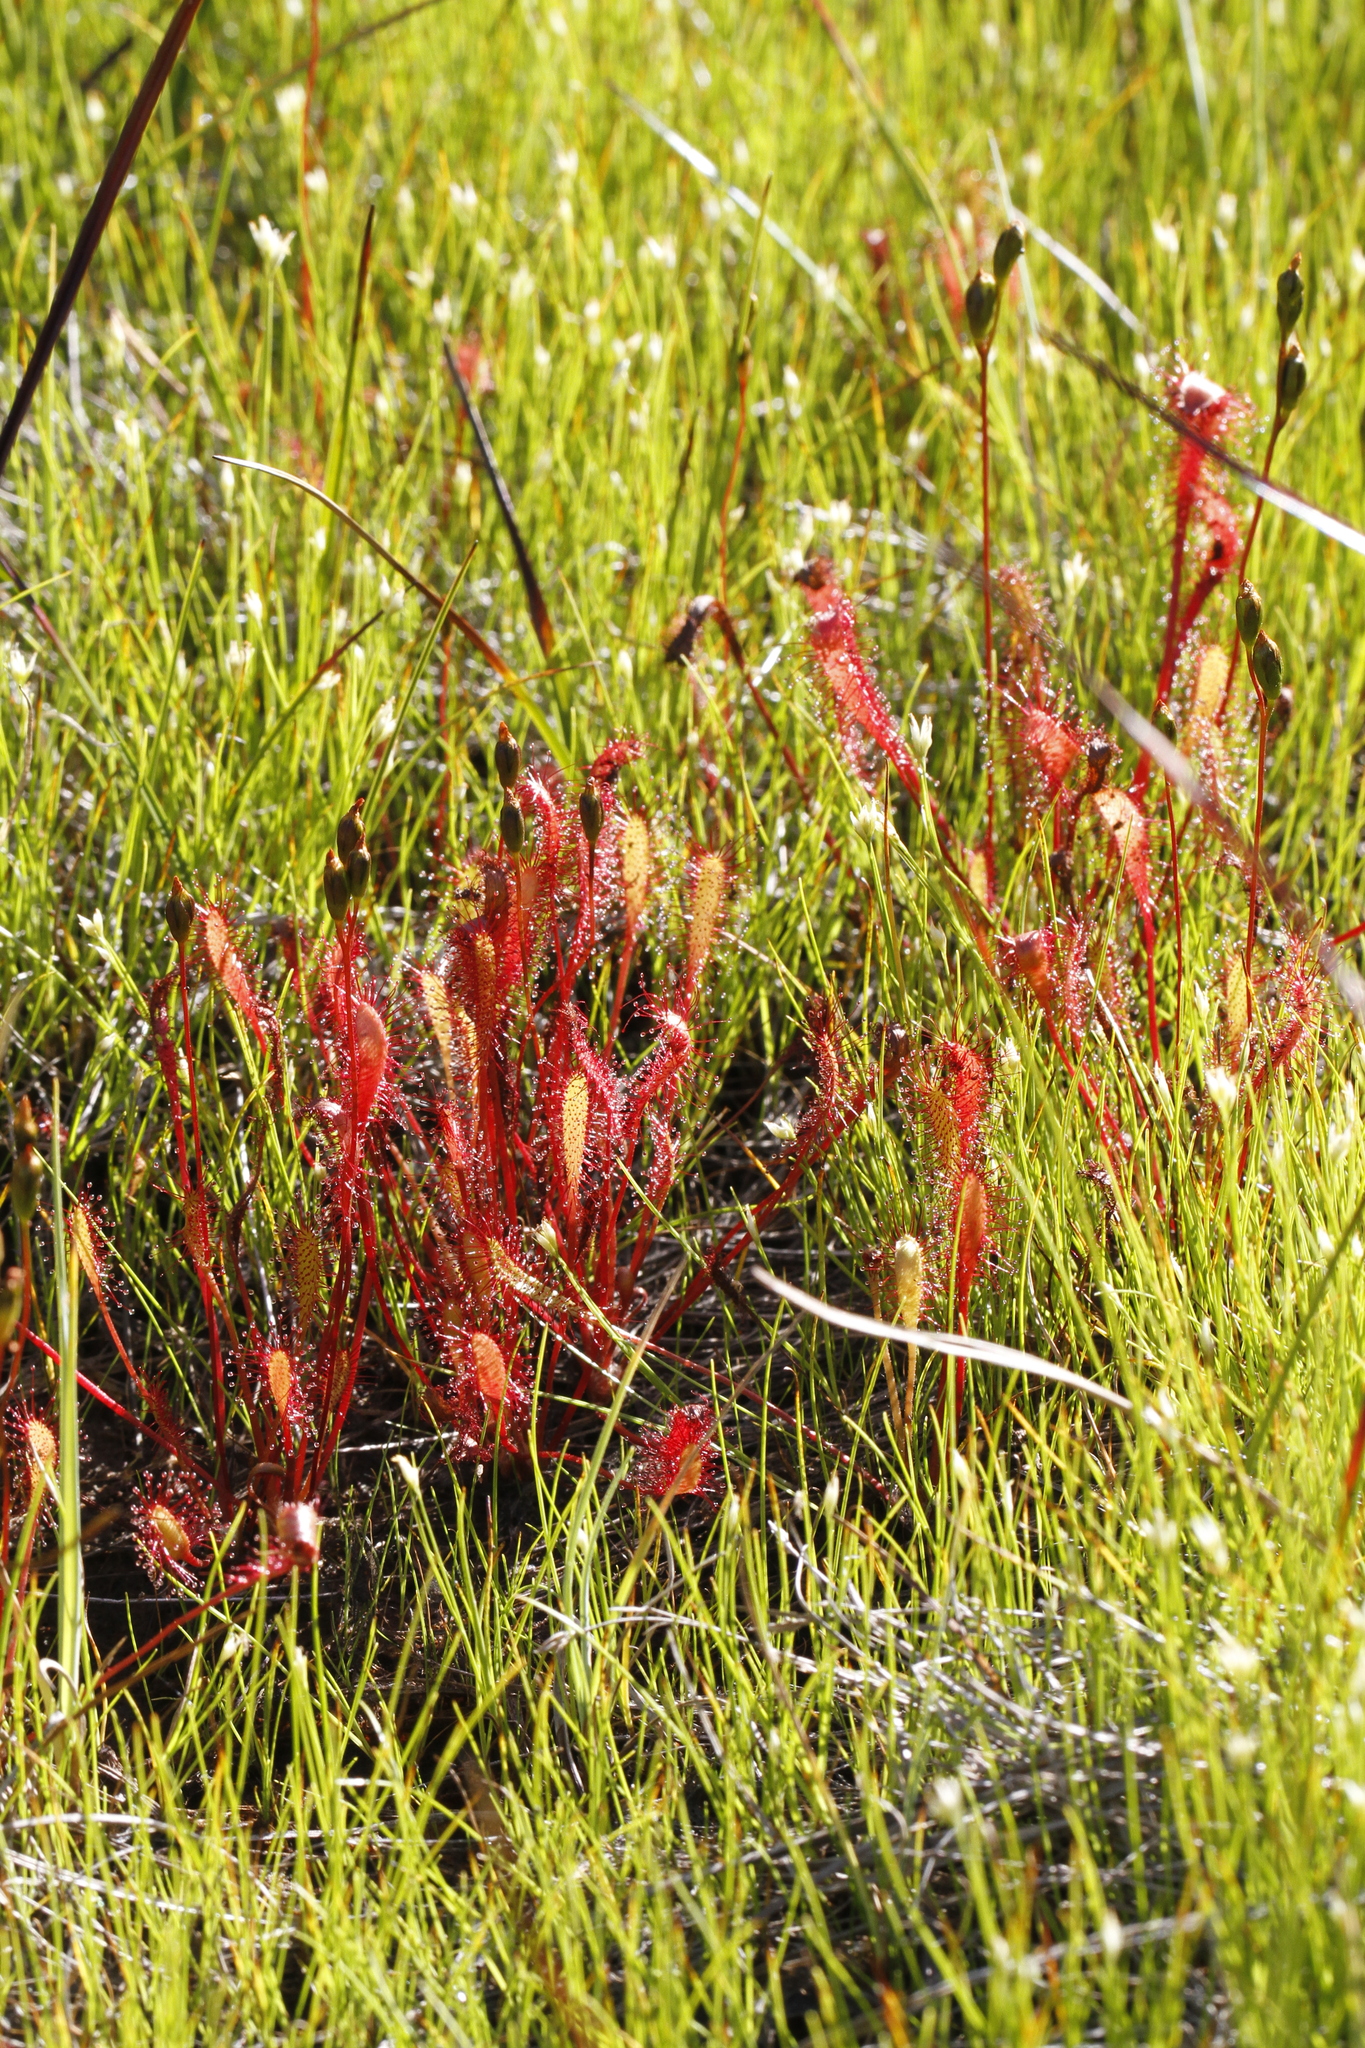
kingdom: Plantae
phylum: Tracheophyta
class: Magnoliopsida
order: Caryophyllales
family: Droseraceae
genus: Drosera
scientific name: Drosera anglica
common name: Great sundew
